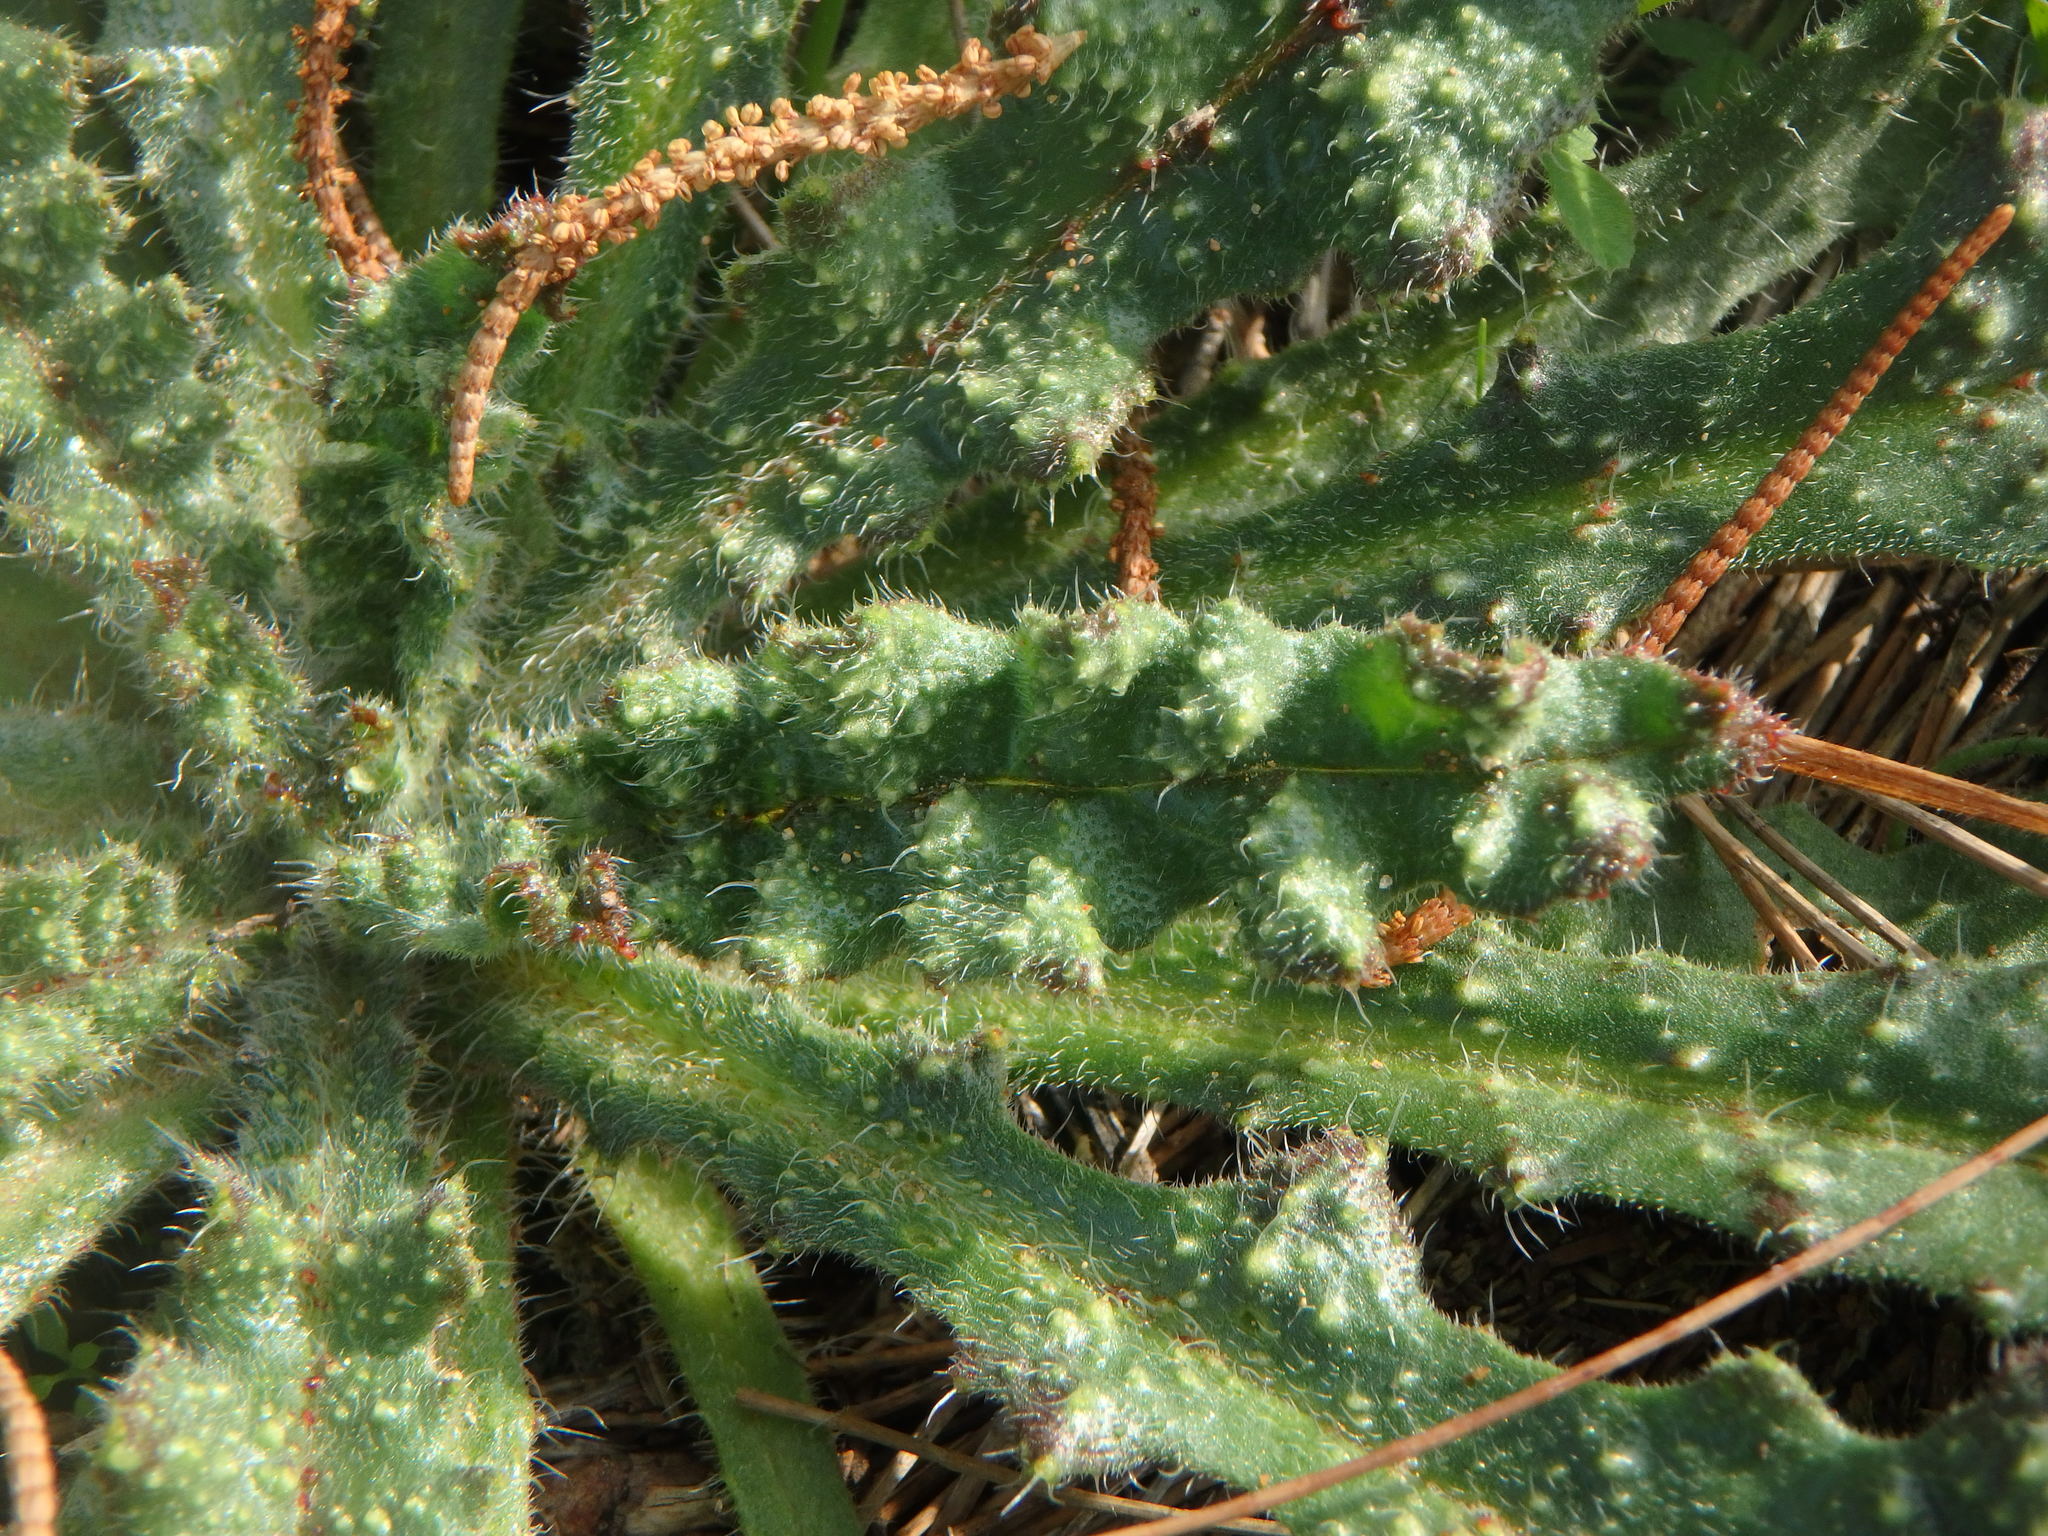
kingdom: Plantae
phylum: Tracheophyta
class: Magnoliopsida
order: Boraginales
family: Boraginaceae
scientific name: Boraginaceae
